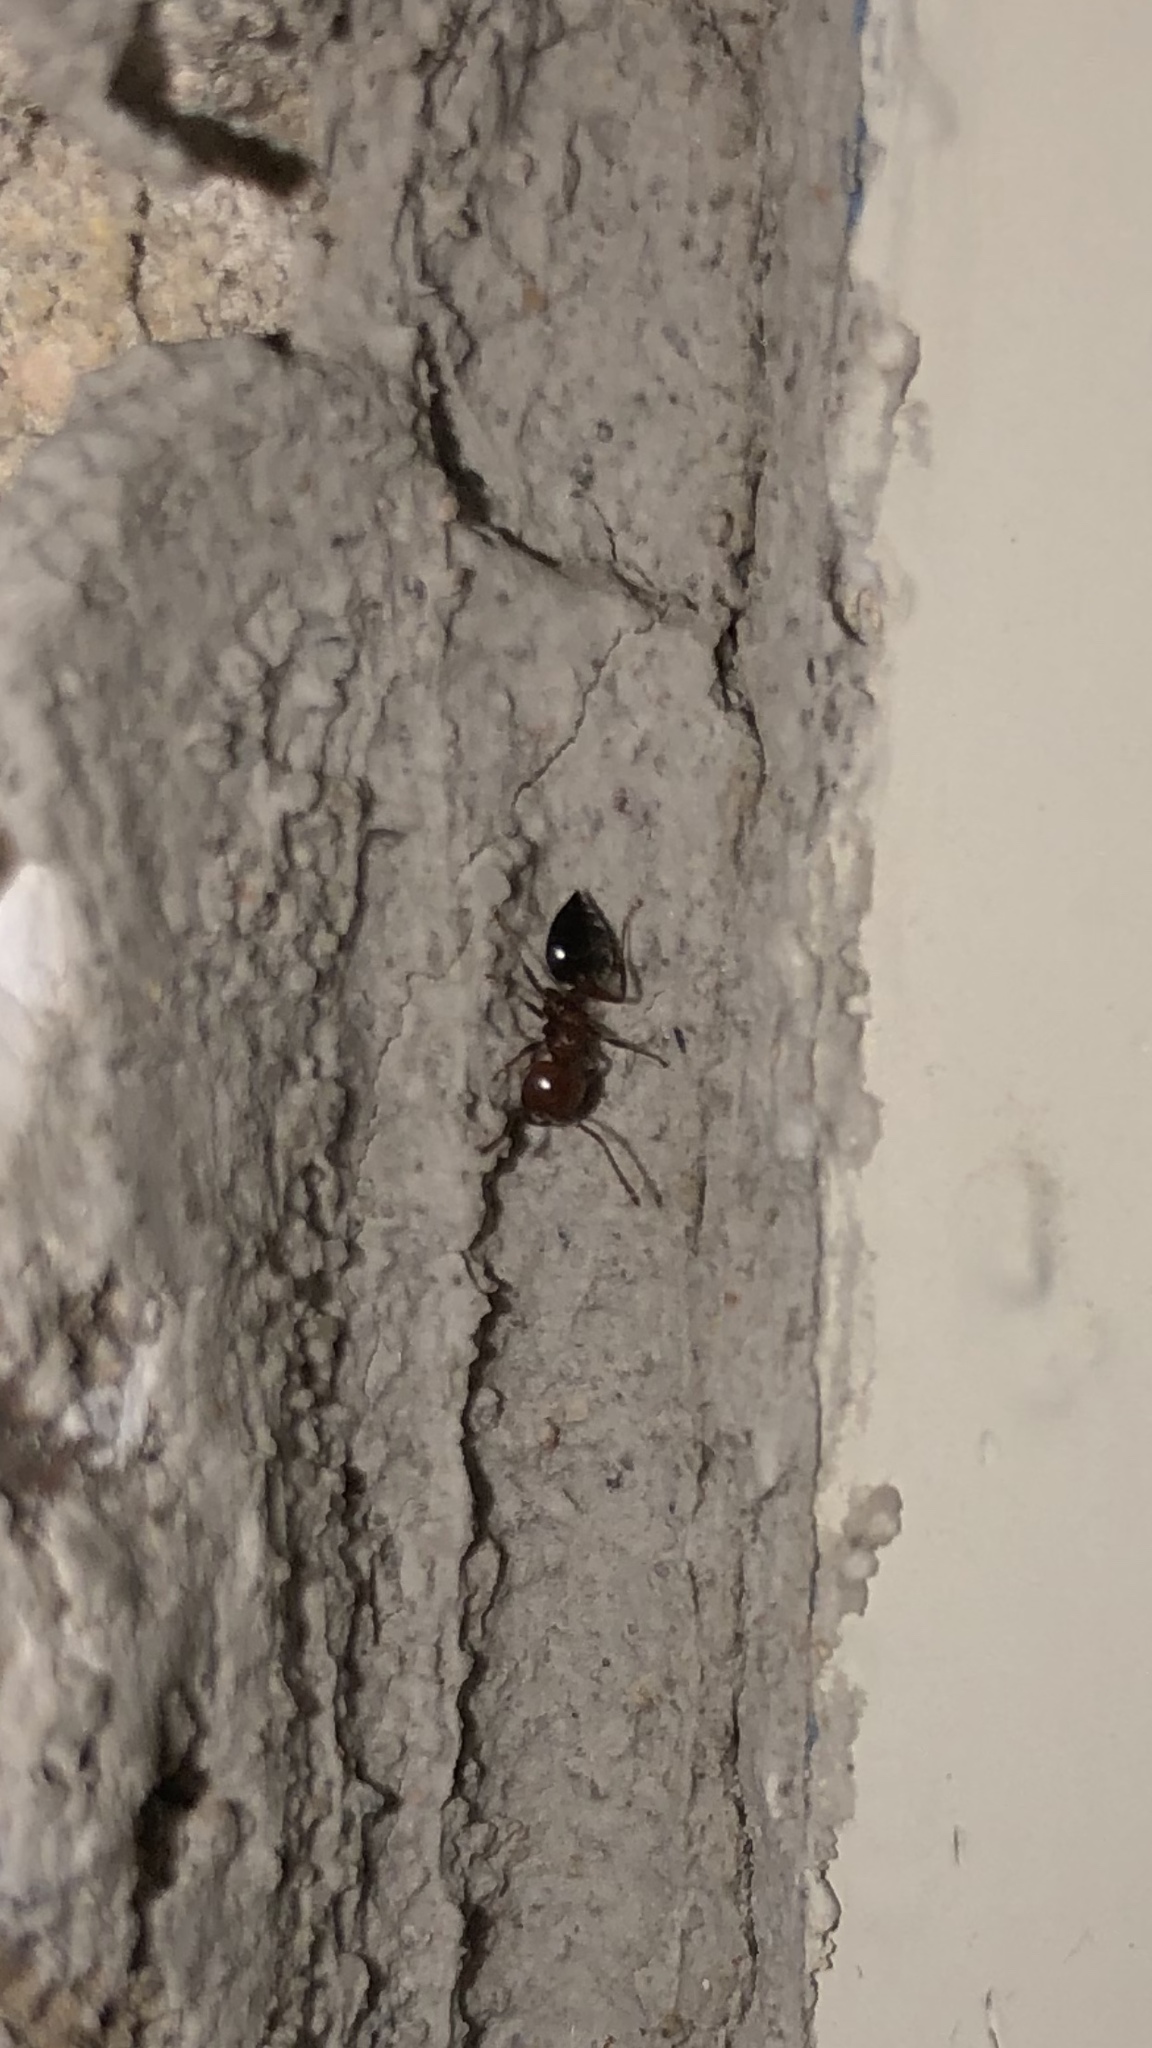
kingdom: Animalia
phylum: Arthropoda
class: Insecta
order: Hymenoptera
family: Formicidae
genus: Crematogaster
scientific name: Crematogaster laeviuscula
